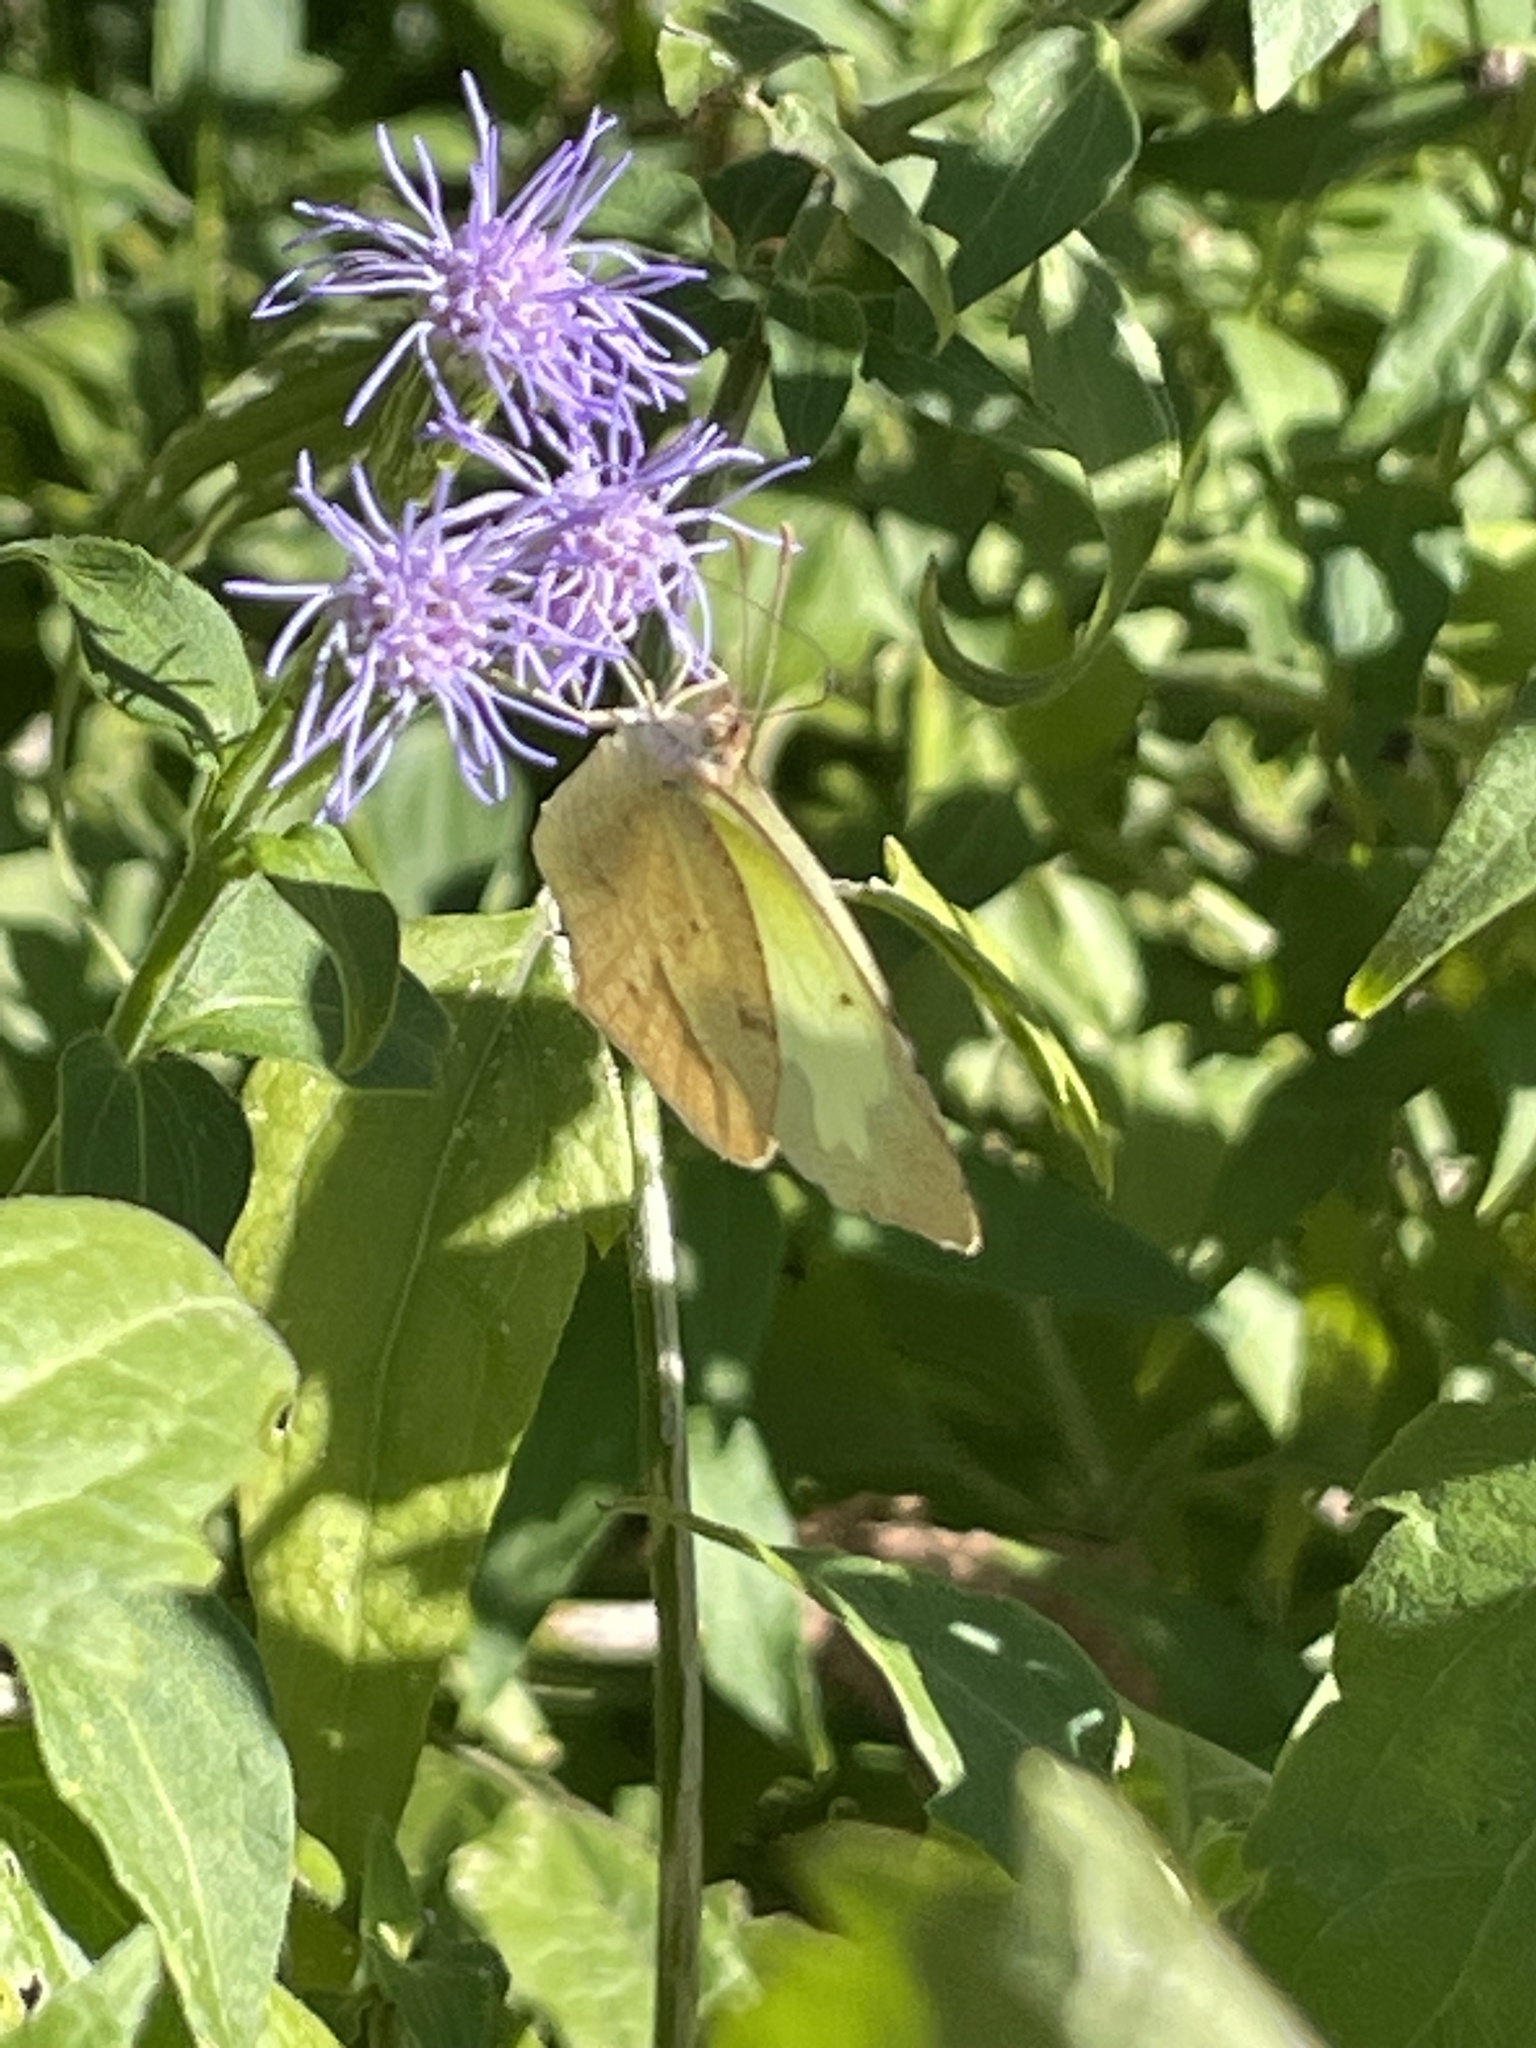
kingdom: Animalia
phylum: Arthropoda
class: Insecta
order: Lepidoptera
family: Pieridae
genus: Abaeis
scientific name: Abaeis mexicana
